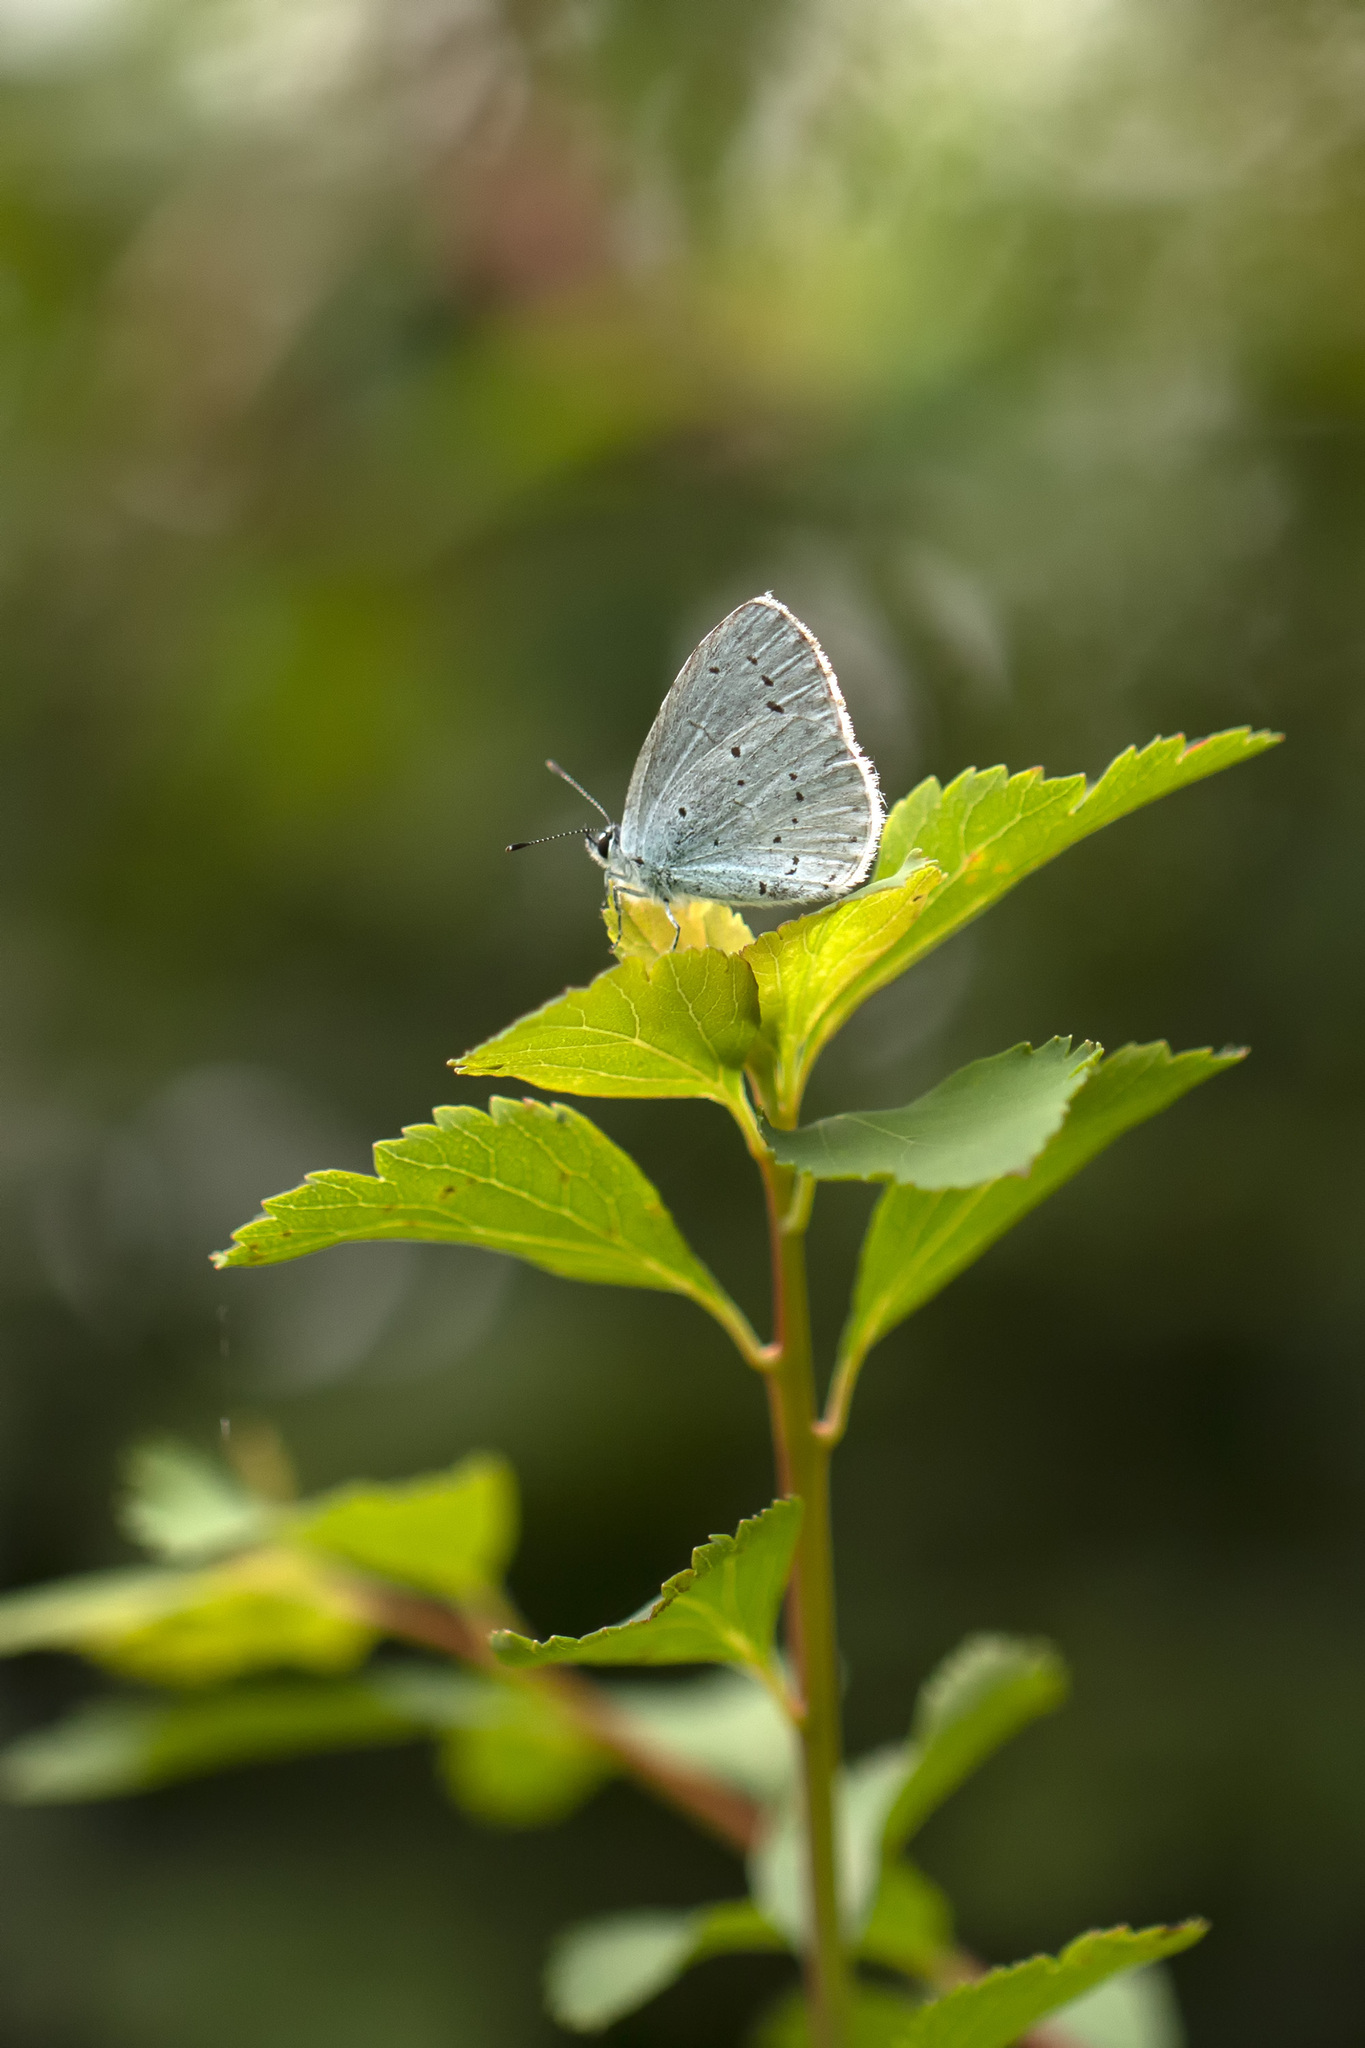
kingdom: Animalia
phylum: Arthropoda
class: Insecta
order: Lepidoptera
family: Lycaenidae
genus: Celastrina
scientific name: Celastrina argiolus
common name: Holly blue
